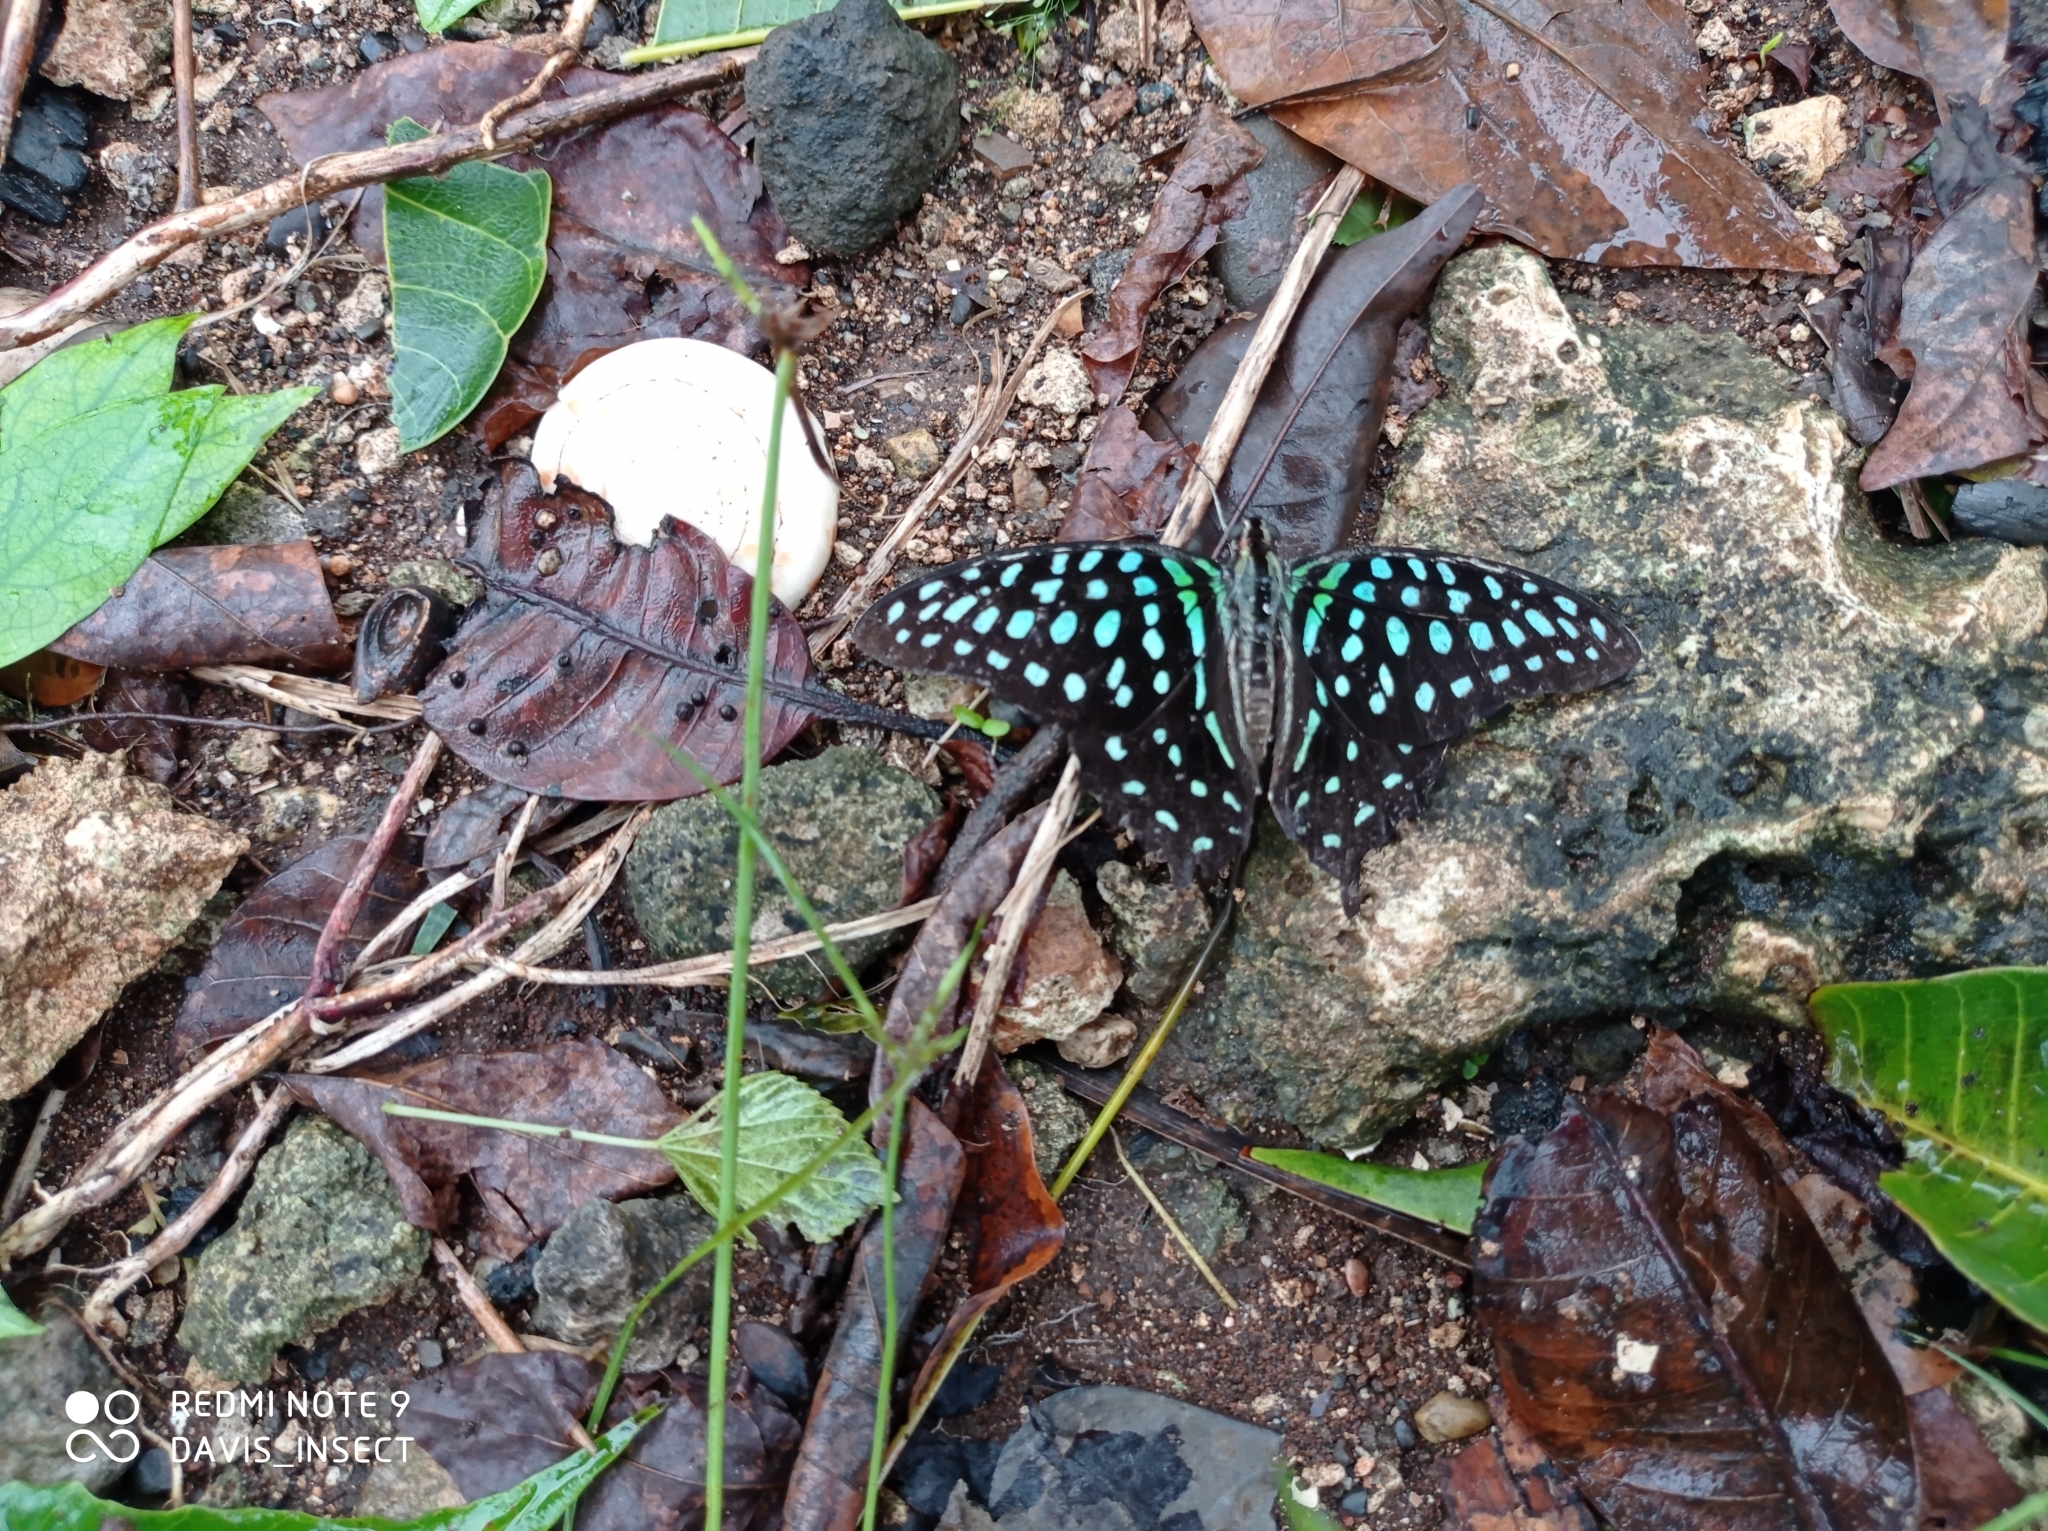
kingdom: Animalia
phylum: Arthropoda
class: Insecta
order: Lepidoptera
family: Papilionidae
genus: Graphium
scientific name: Graphium agamemnon
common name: Tailed jay
